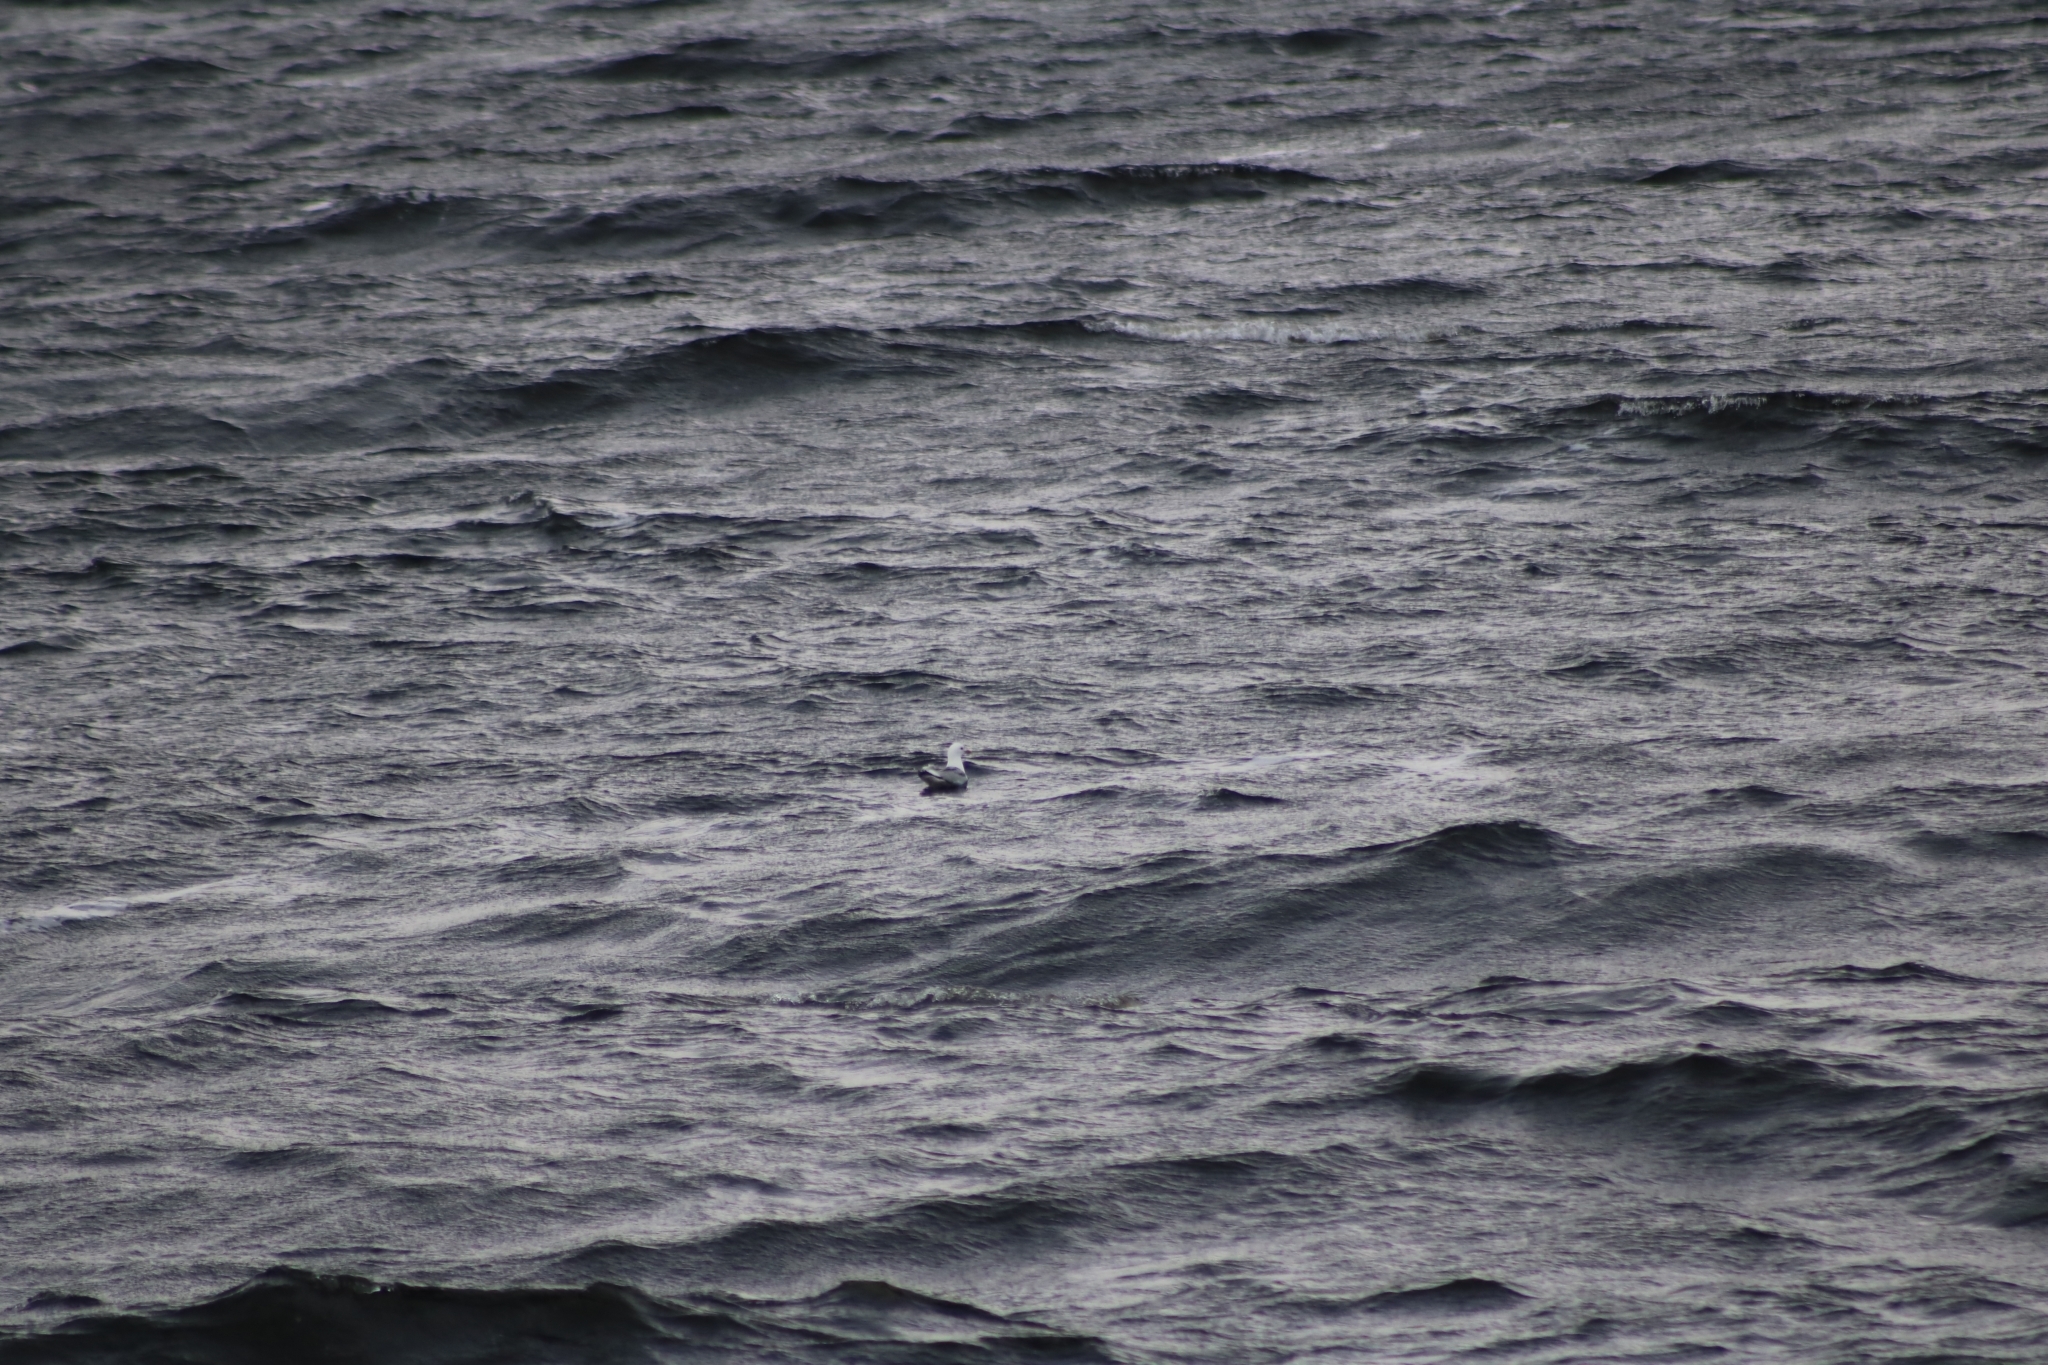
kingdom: Animalia
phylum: Chordata
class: Aves
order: Charadriiformes
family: Laridae
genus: Larus
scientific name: Larus canus
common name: Mew gull
